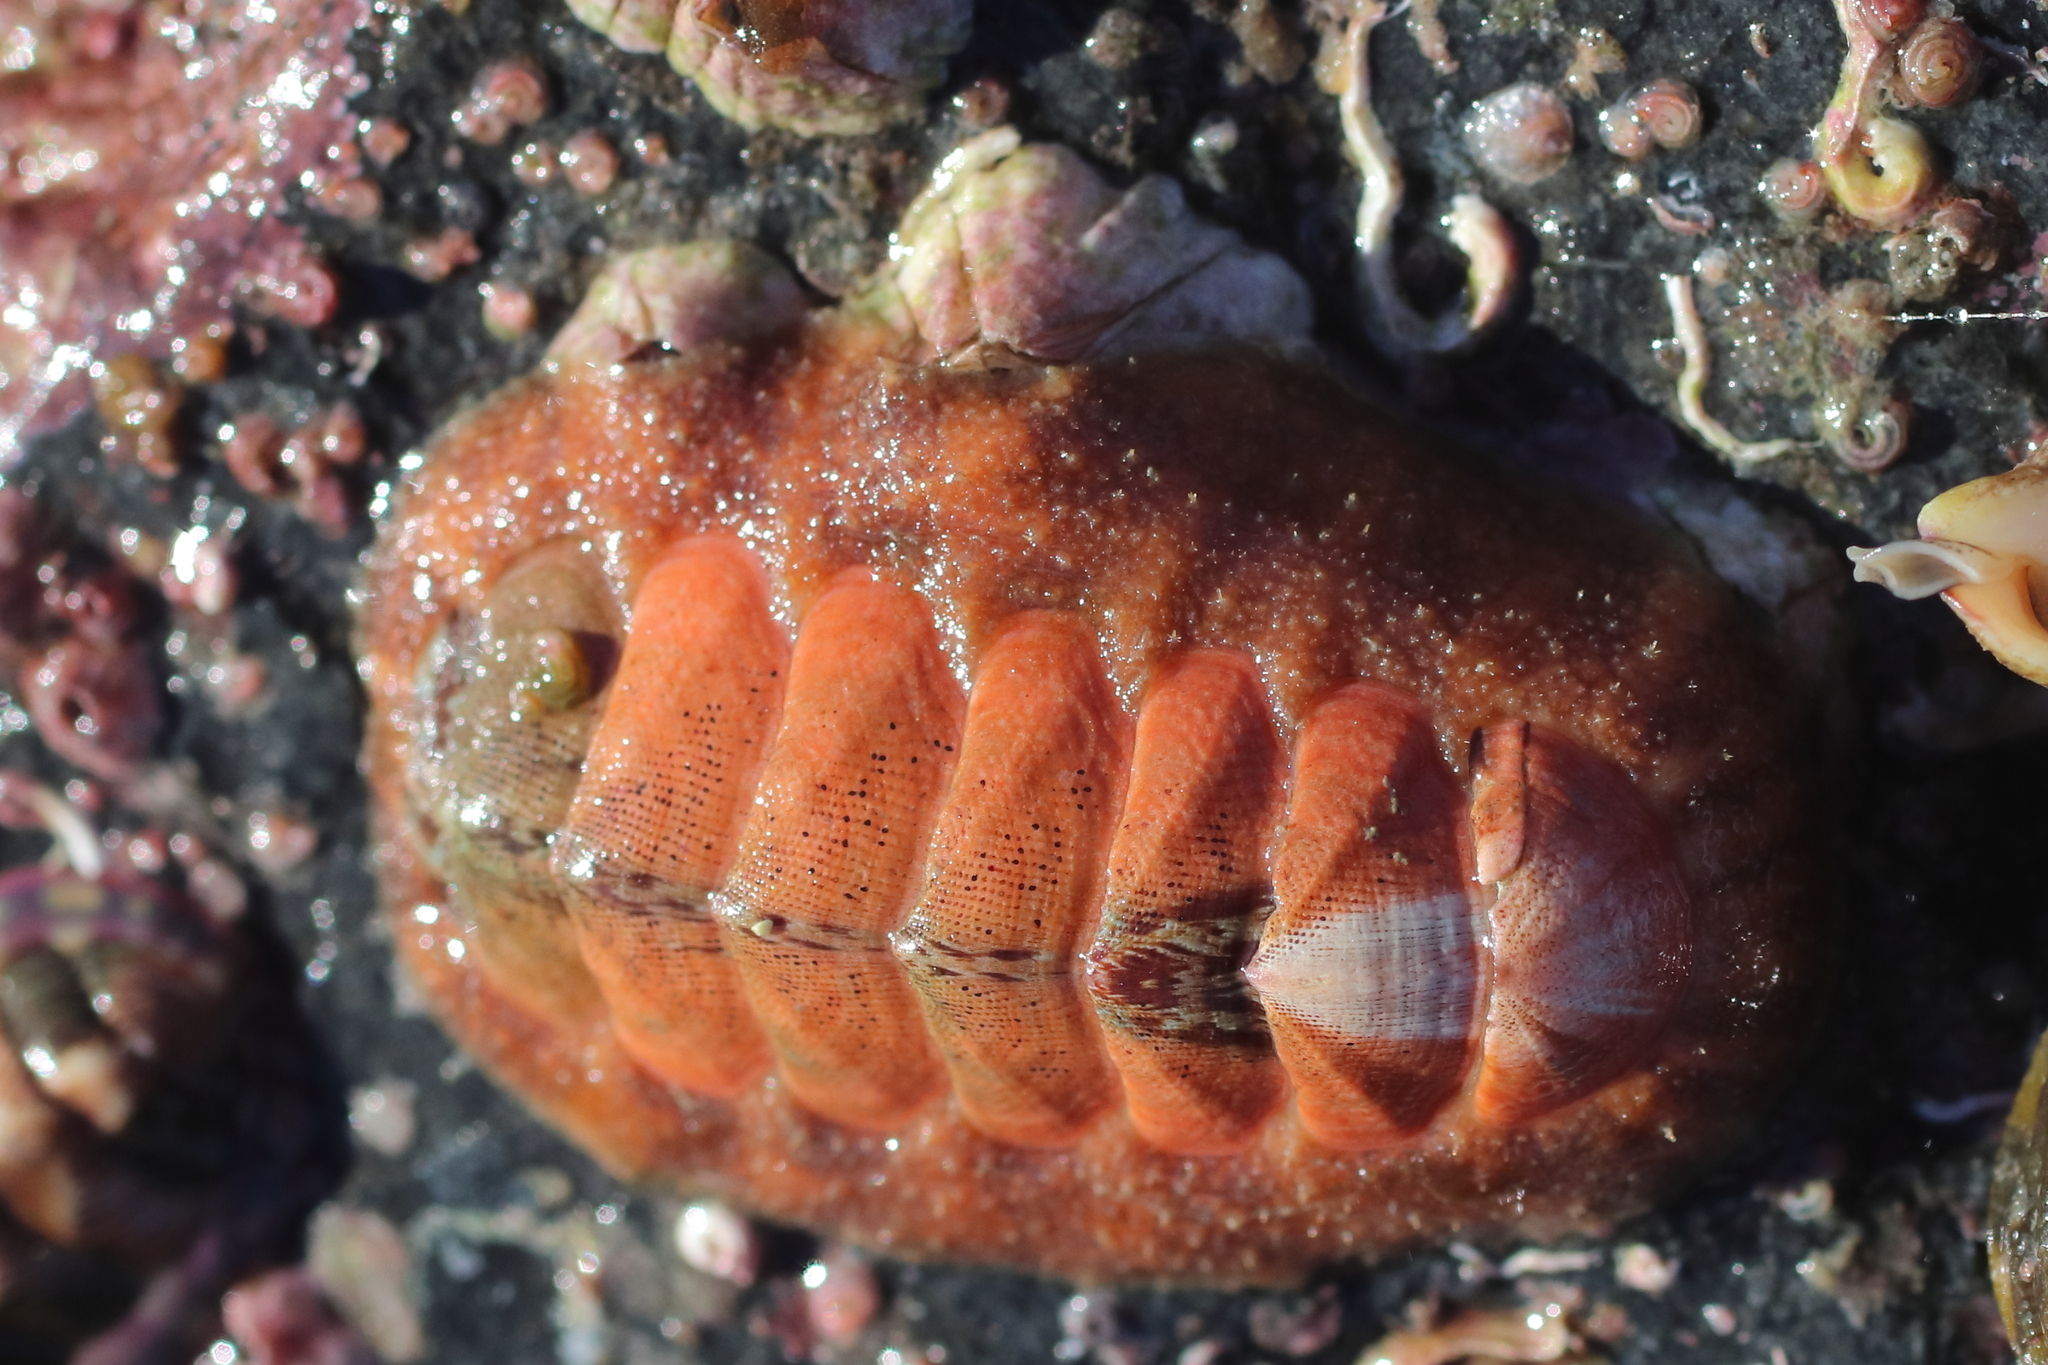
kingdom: Animalia
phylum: Mollusca
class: Polyplacophora
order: Chitonida
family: Mopaliidae
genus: Mopalia
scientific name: Mopalia swanii
